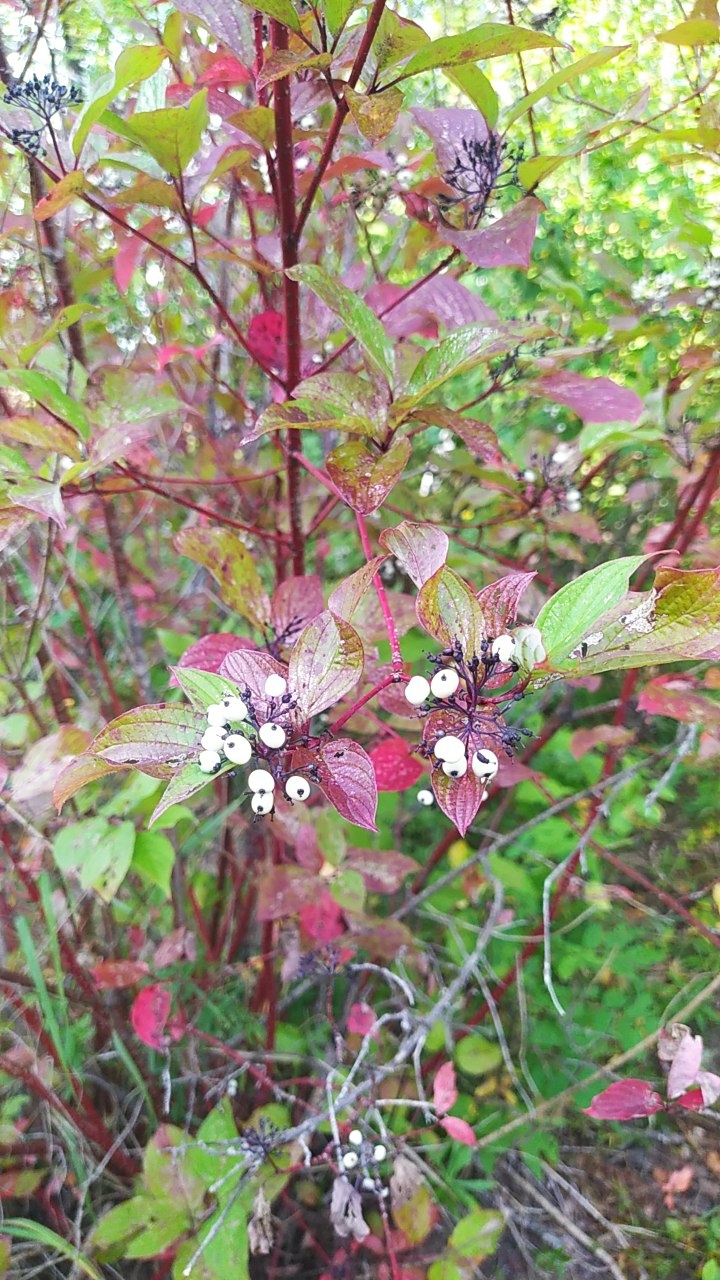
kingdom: Plantae
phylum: Tracheophyta
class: Magnoliopsida
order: Cornales
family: Cornaceae
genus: Cornus
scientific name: Cornus alba
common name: White dogwood
